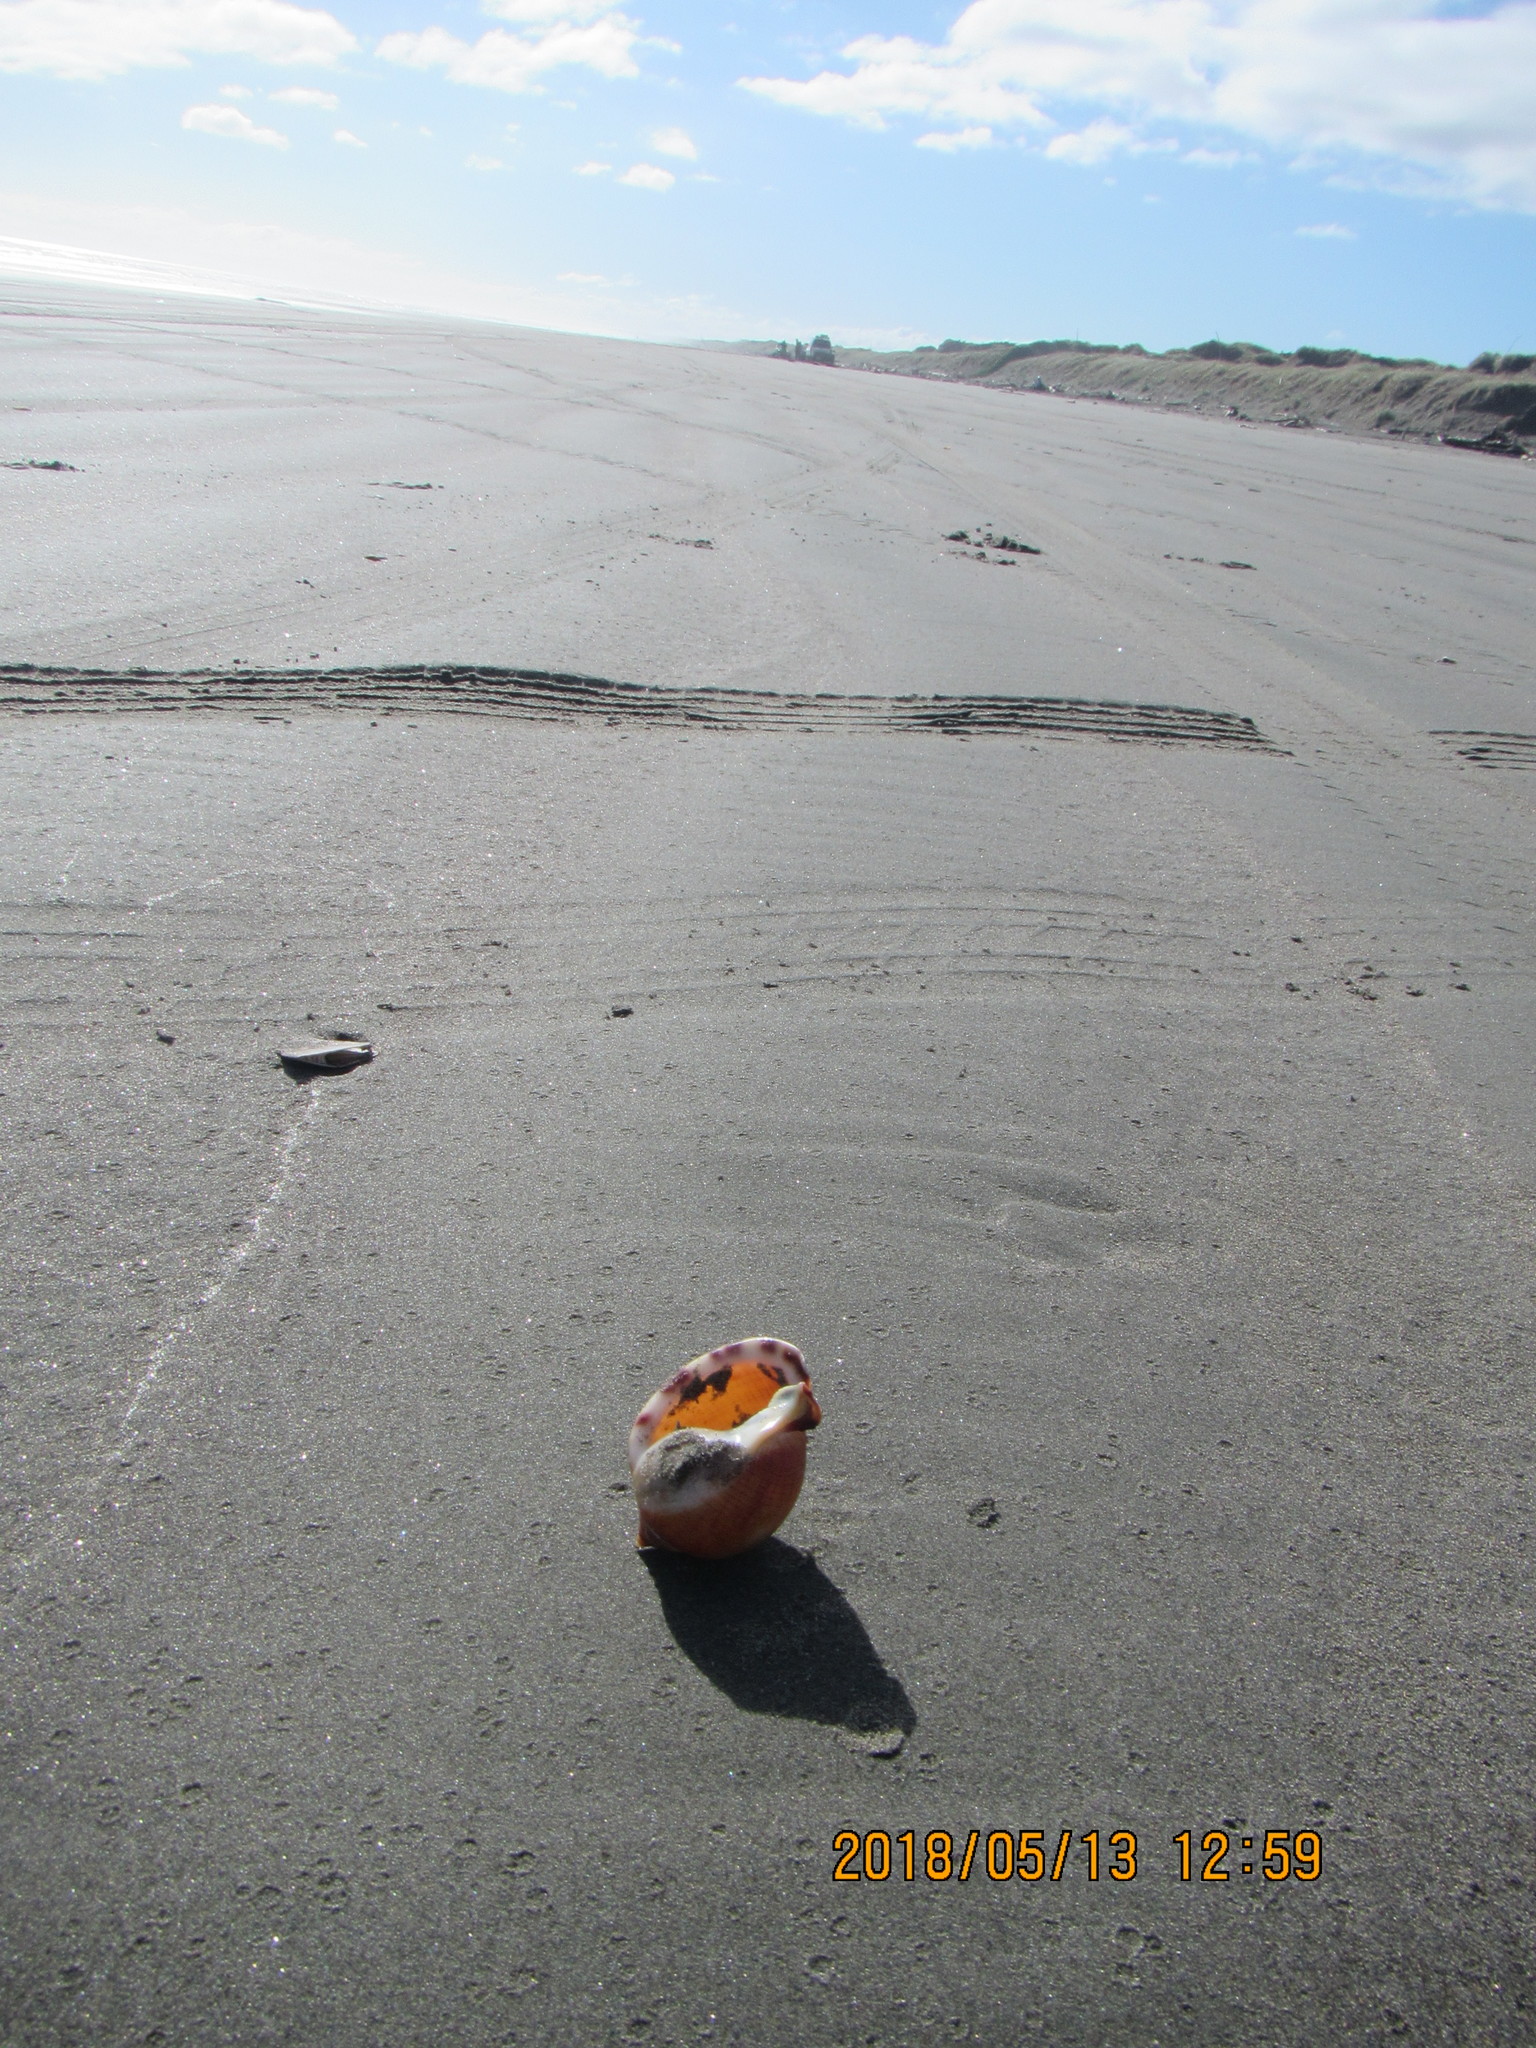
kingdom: Animalia
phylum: Mollusca
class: Gastropoda
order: Littorinimorpha
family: Cassidae
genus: Semicassis
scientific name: Semicassis pyrum
